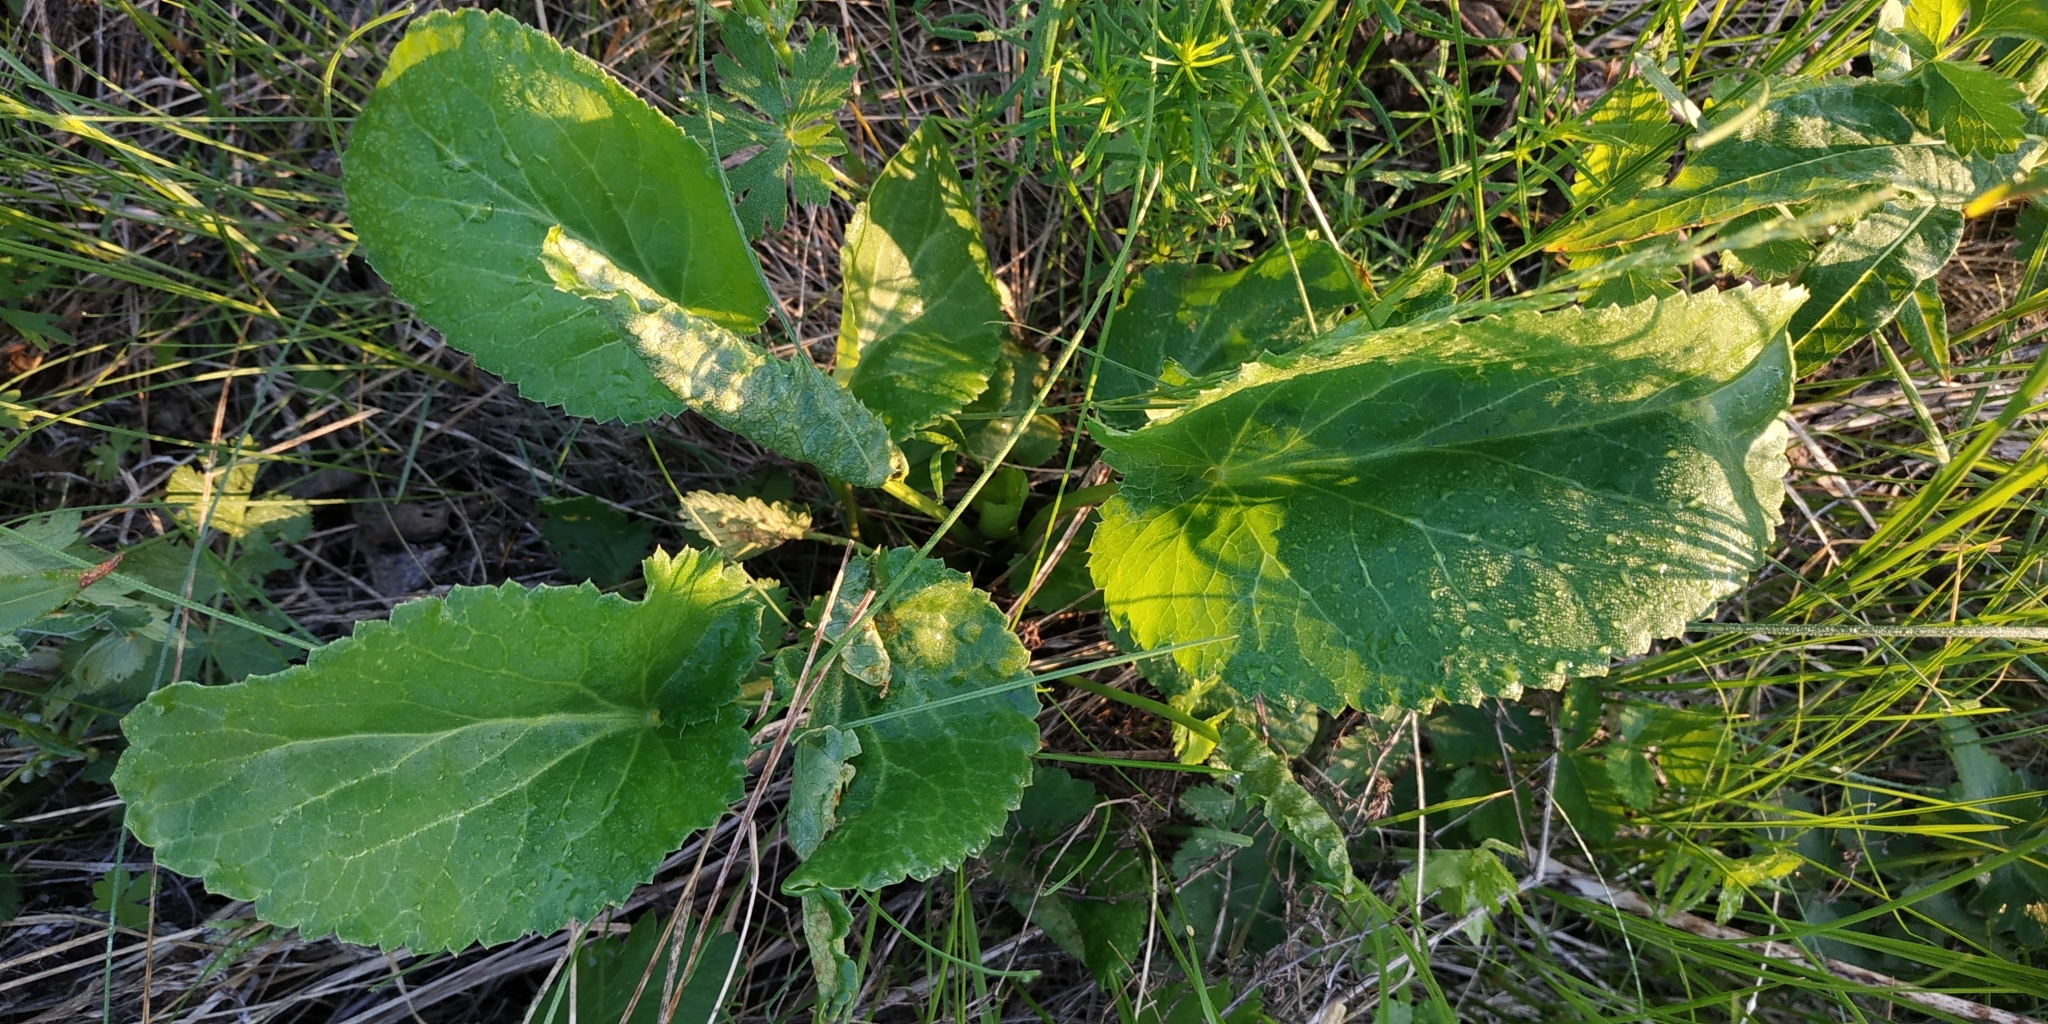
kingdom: Plantae
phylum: Tracheophyta
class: Magnoliopsida
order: Apiales
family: Apiaceae
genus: Eryngium
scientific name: Eryngium planum
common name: Blue eryngo
